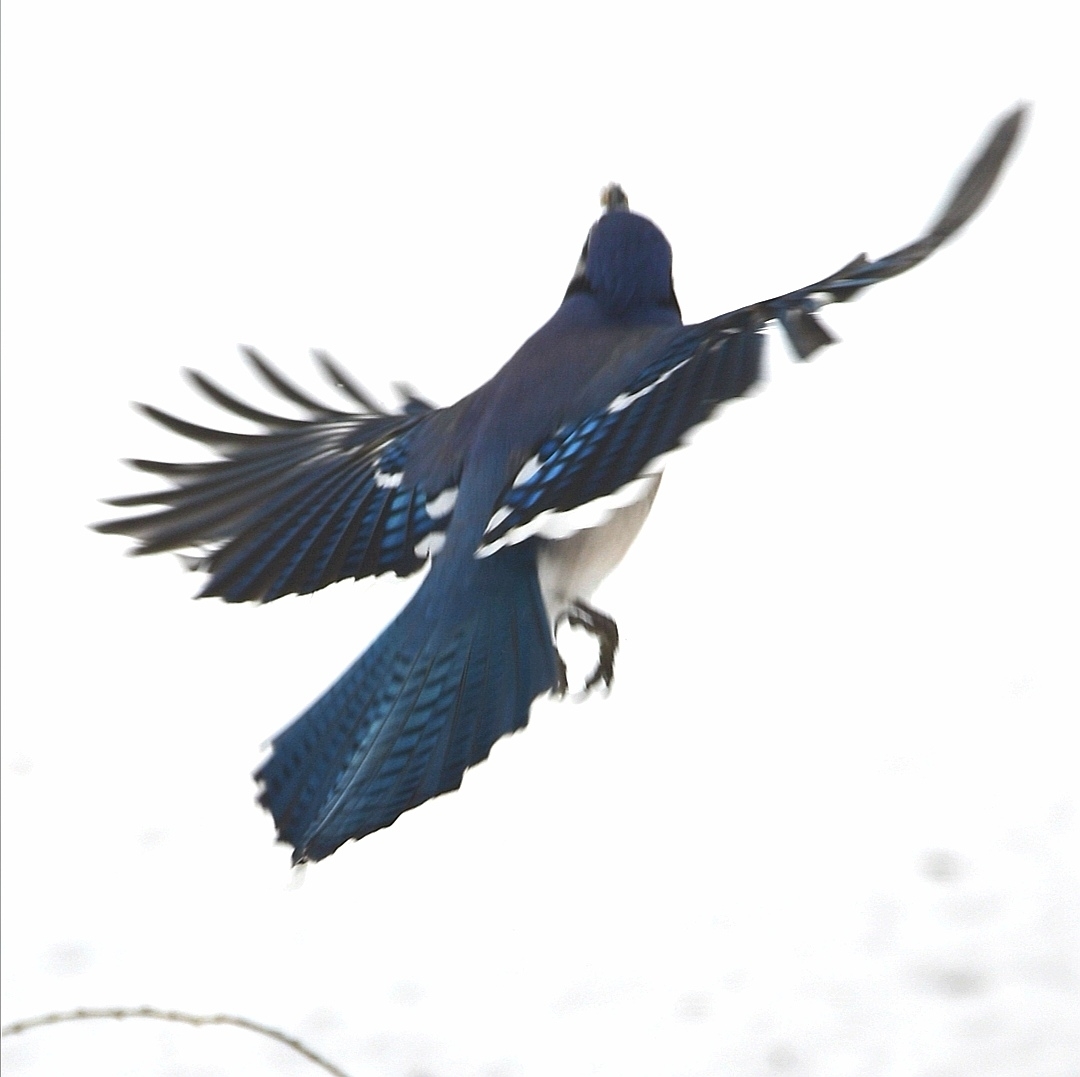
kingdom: Animalia
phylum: Chordata
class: Aves
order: Passeriformes
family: Corvidae
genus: Cyanocitta
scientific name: Cyanocitta cristata
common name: Blue jay
